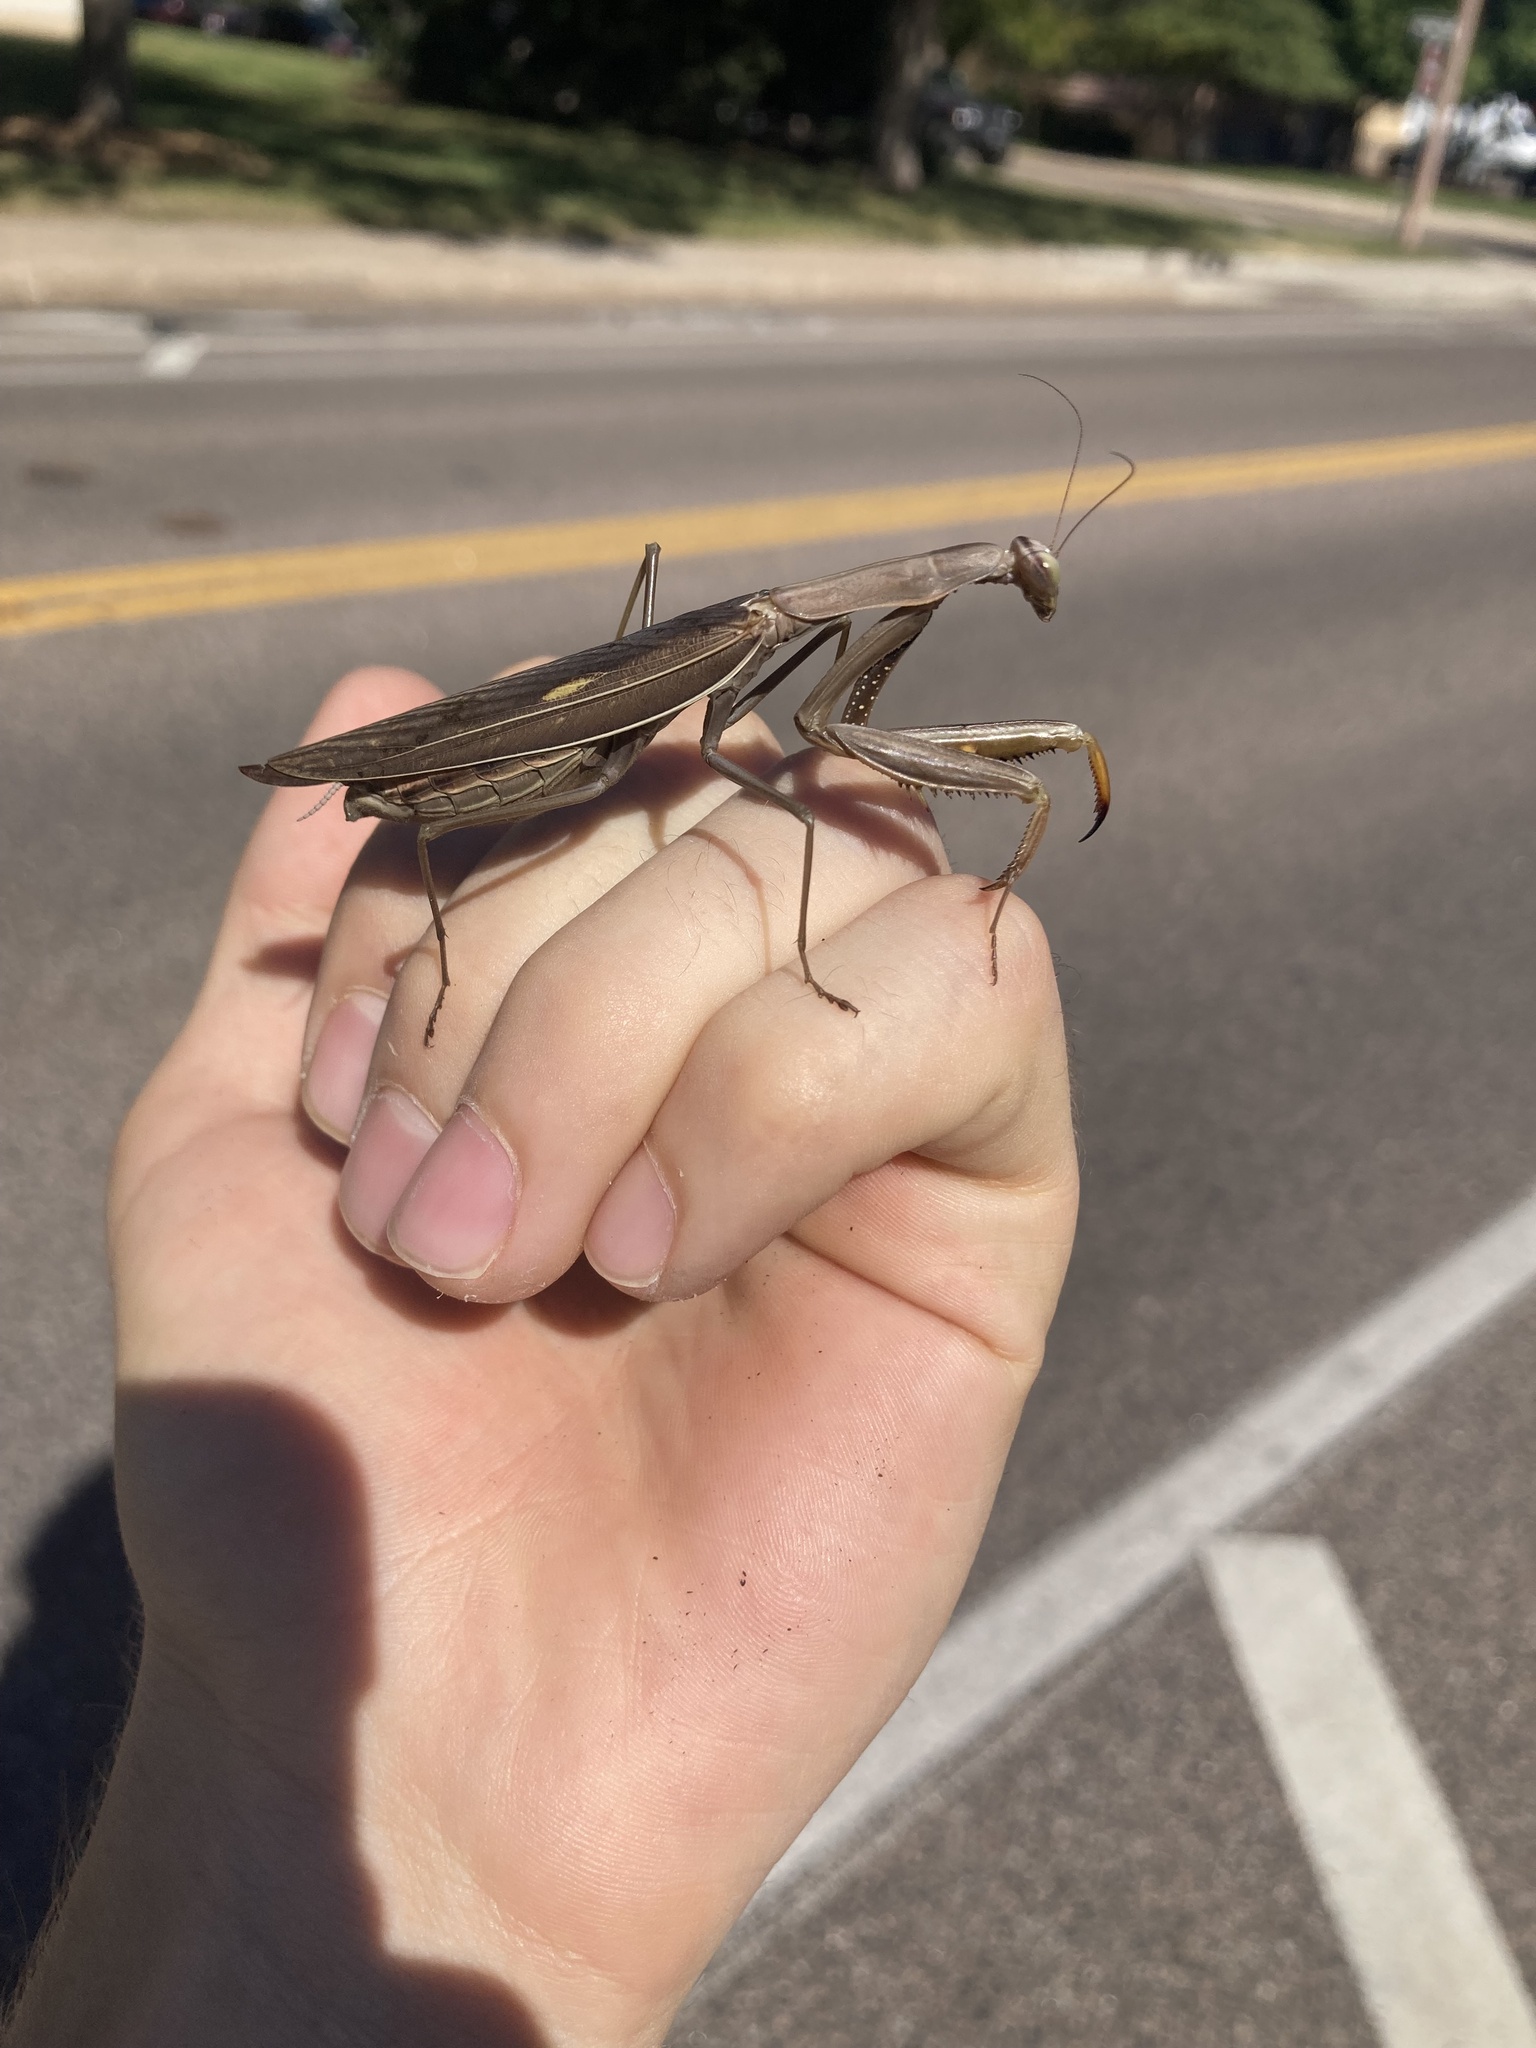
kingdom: Animalia
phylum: Arthropoda
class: Insecta
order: Mantodea
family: Mantidae
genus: Mantis
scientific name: Mantis religiosa
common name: Praying mantis
